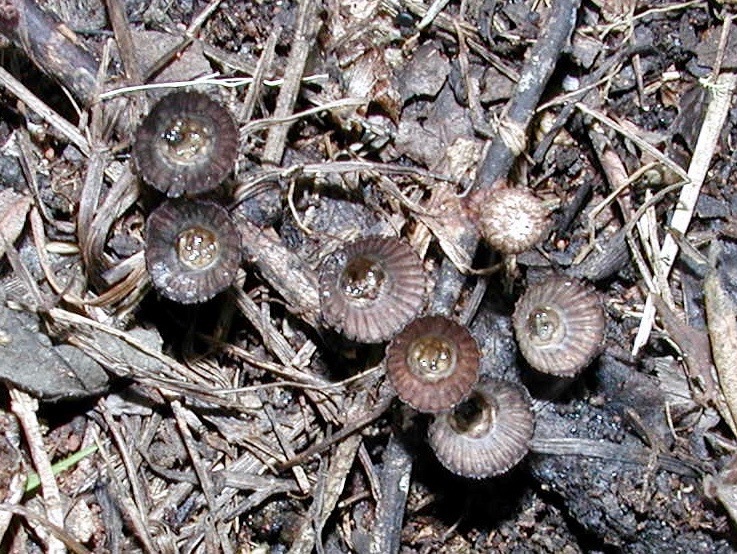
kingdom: Fungi
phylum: Basidiomycota
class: Agaricomycetes
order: Agaricales
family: Agaricaceae
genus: Cyathus
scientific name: Cyathus striatus
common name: Fluted bird's nest
